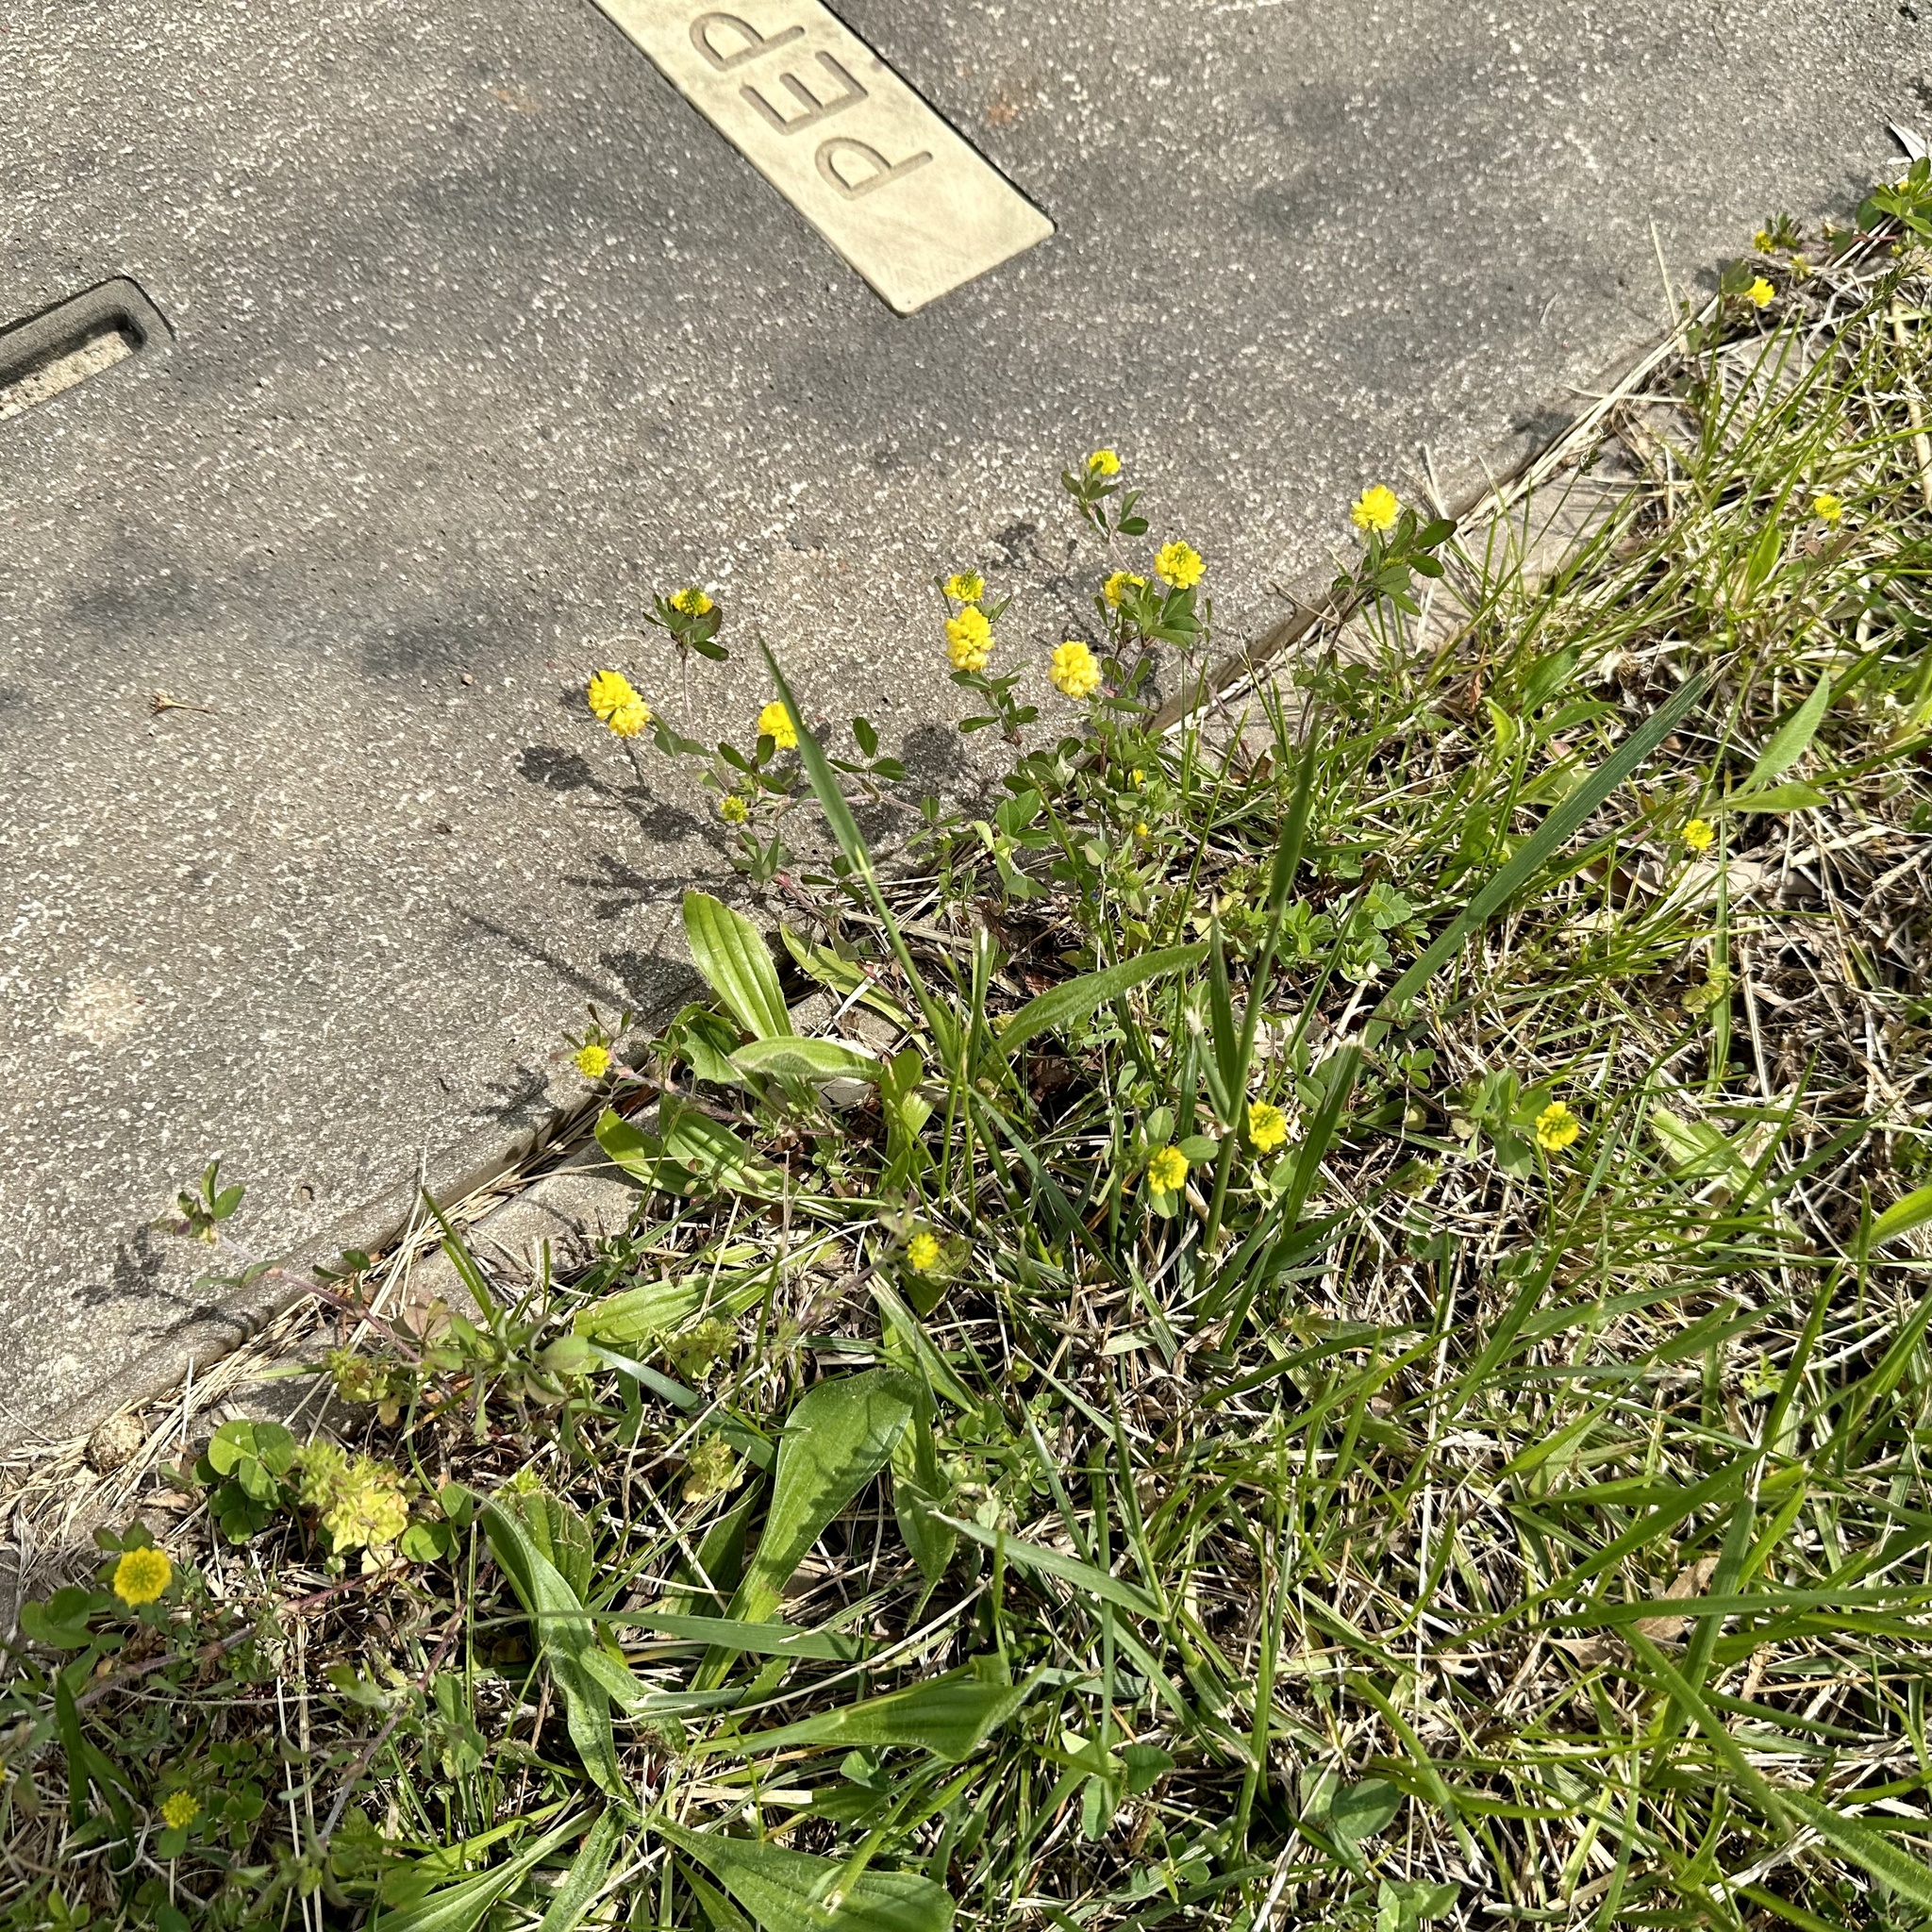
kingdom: Plantae
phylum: Tracheophyta
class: Magnoliopsida
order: Fabales
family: Fabaceae
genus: Trifolium
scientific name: Trifolium campestre
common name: Field clover
